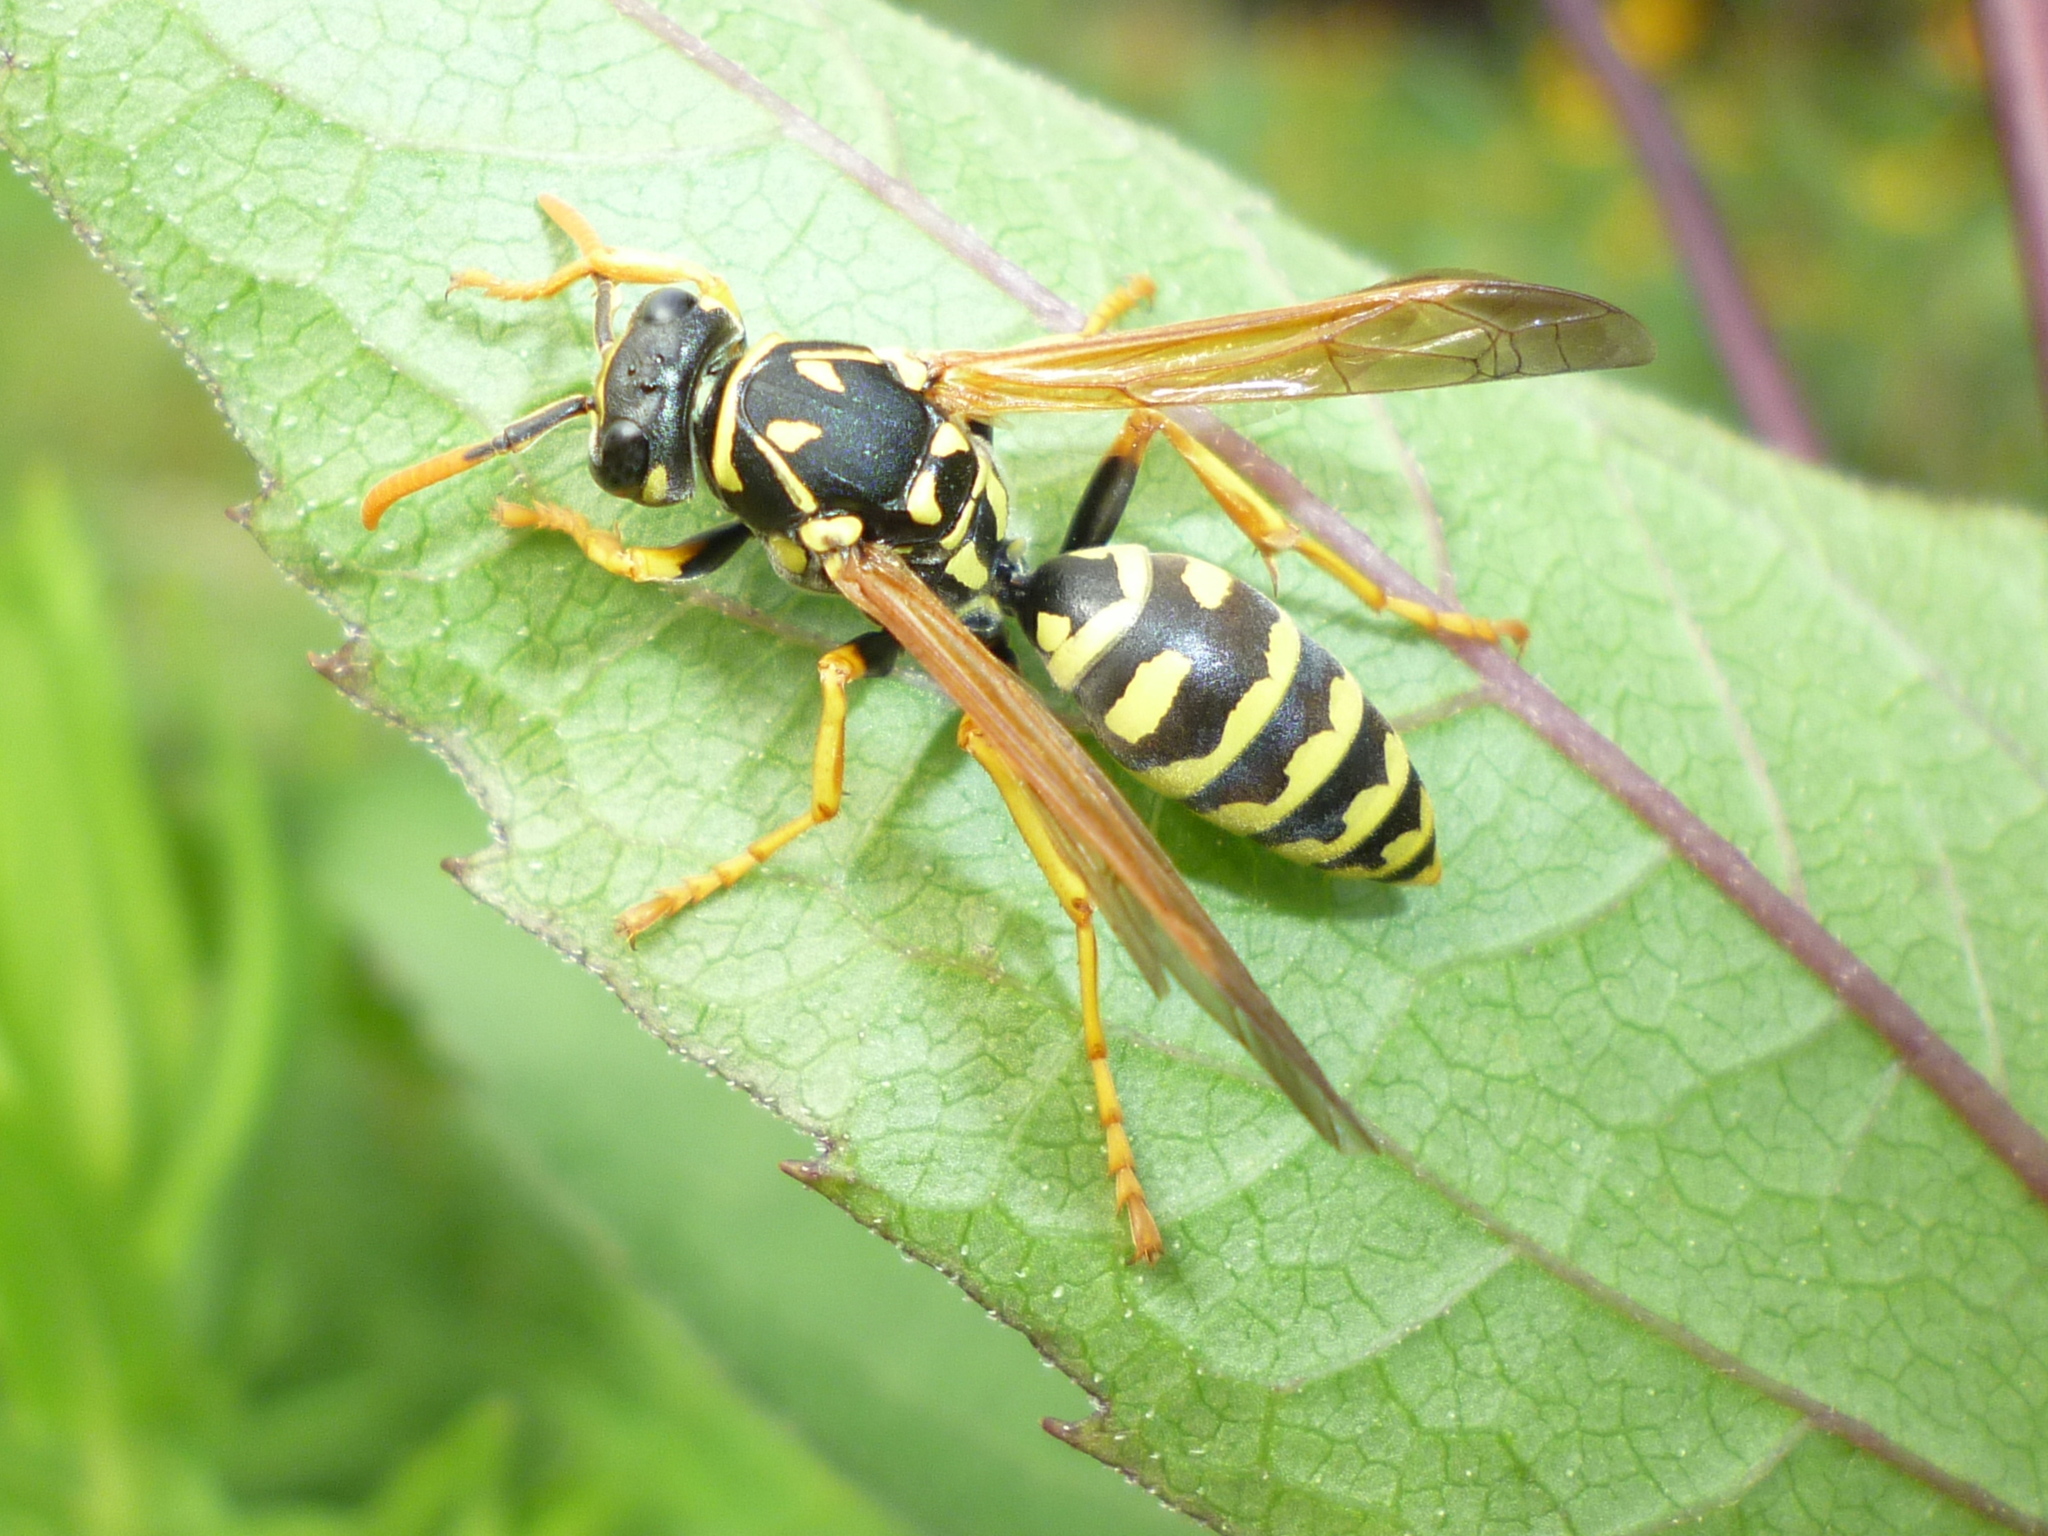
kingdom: Animalia
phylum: Arthropoda
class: Insecta
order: Hymenoptera
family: Eumenidae
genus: Polistes
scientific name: Polistes dominula
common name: Paper wasp
